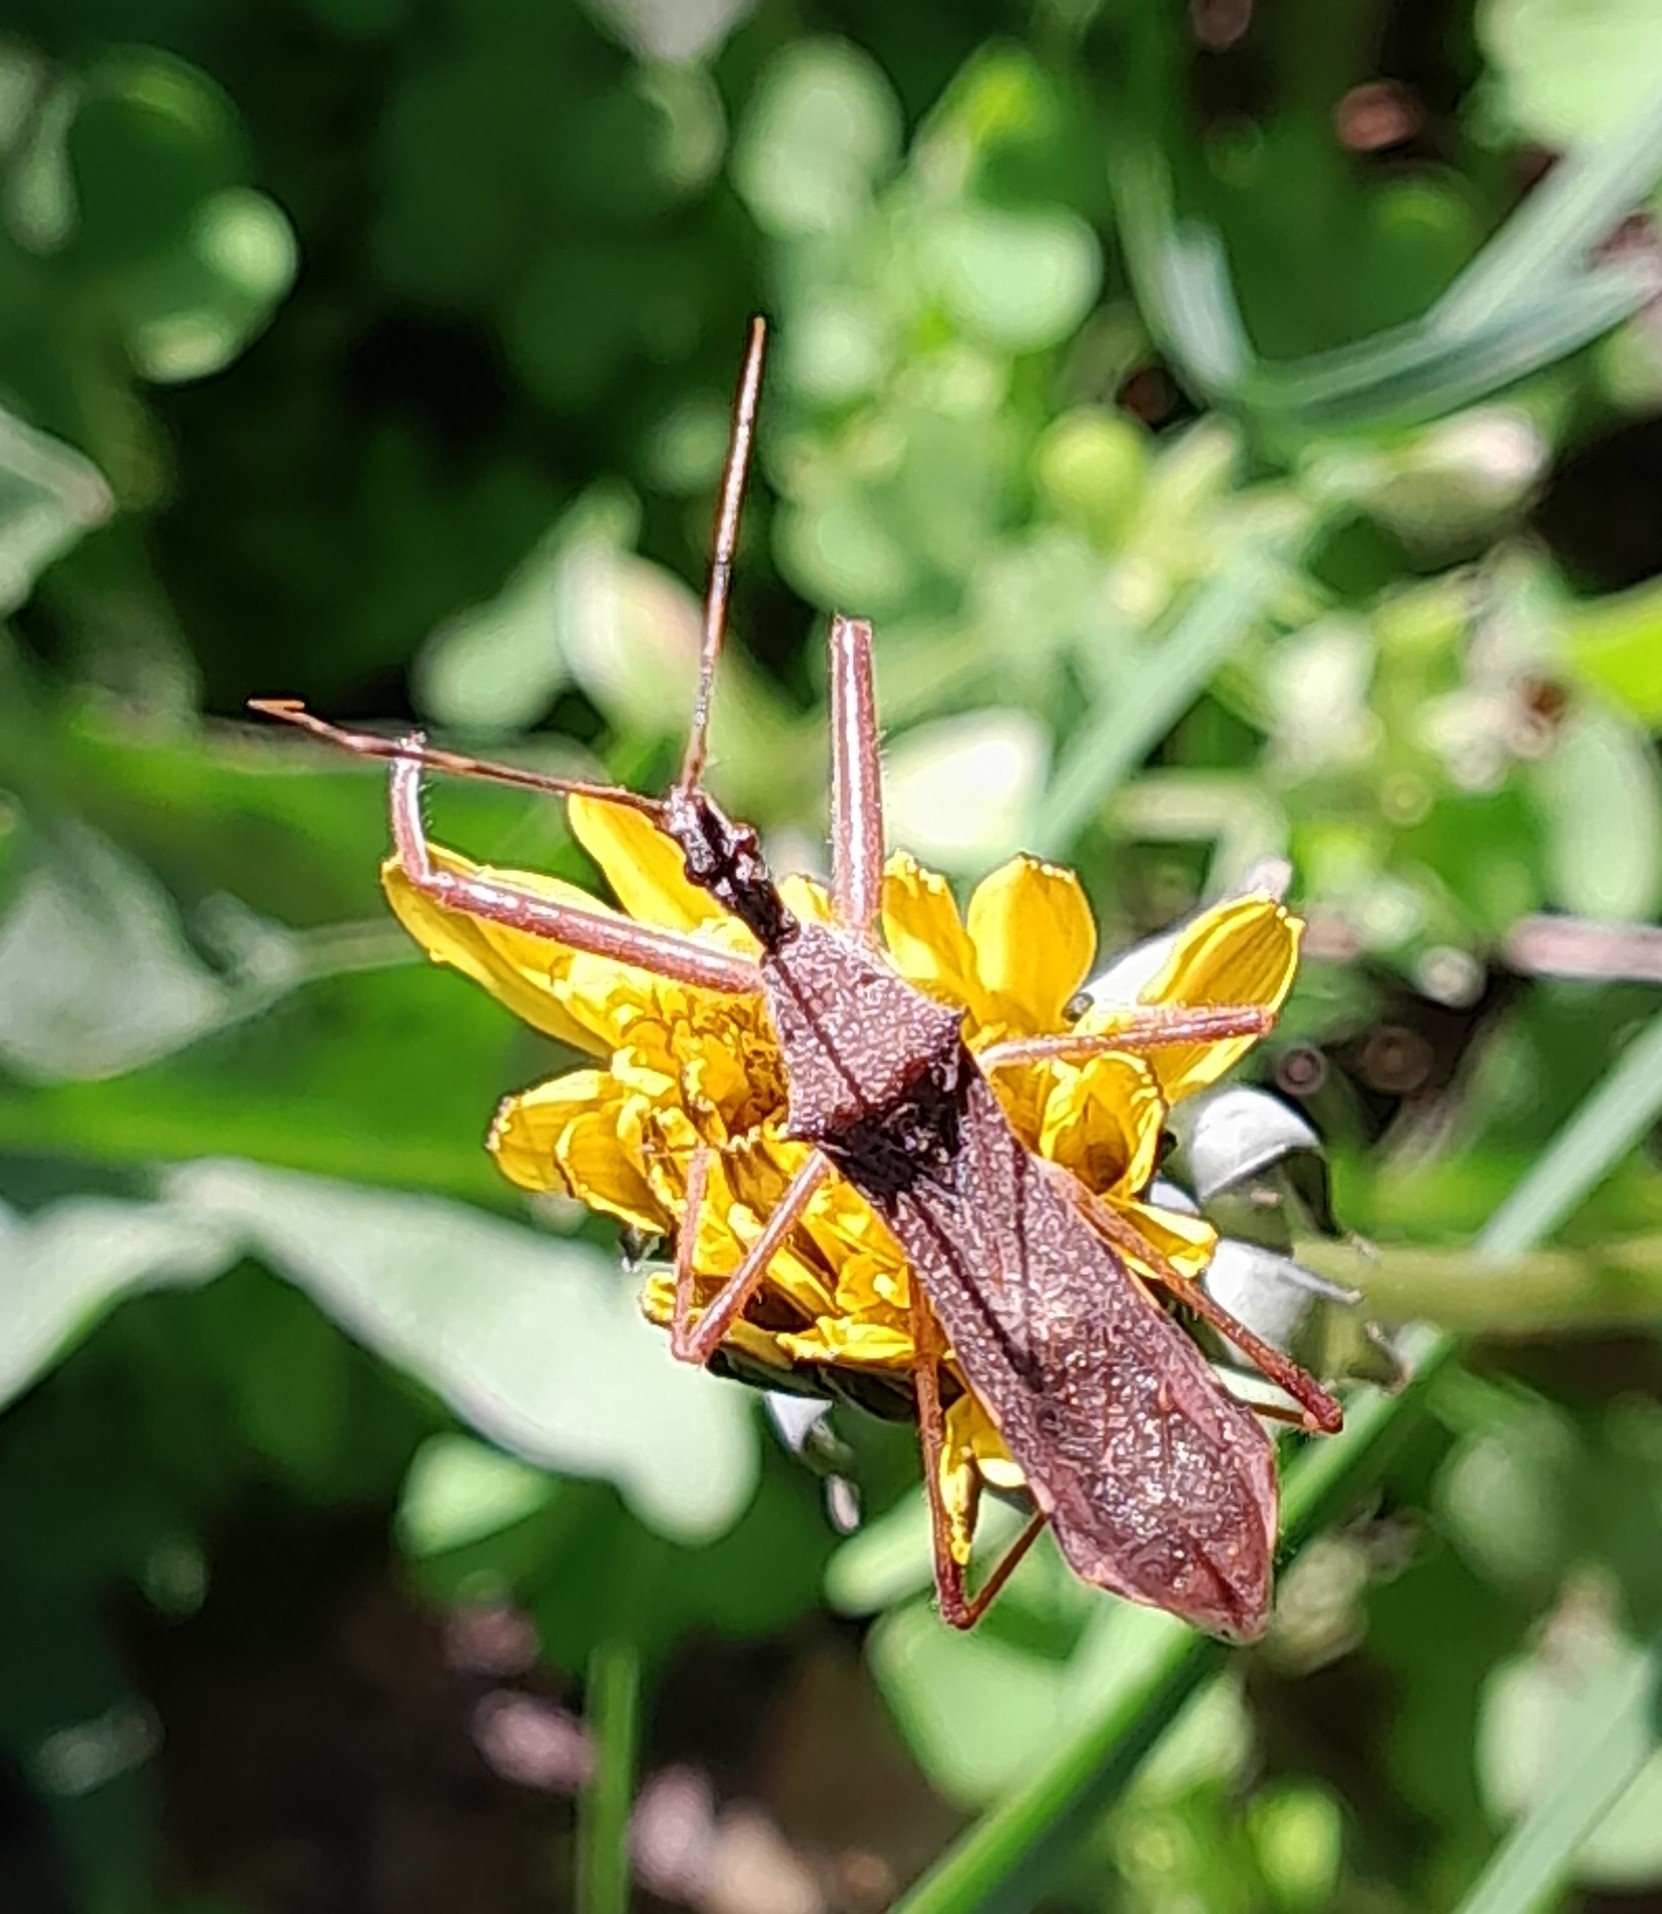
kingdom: Animalia
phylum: Arthropoda
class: Insecta
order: Hemiptera
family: Reduviidae
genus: Nagusta
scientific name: Nagusta goedelii
